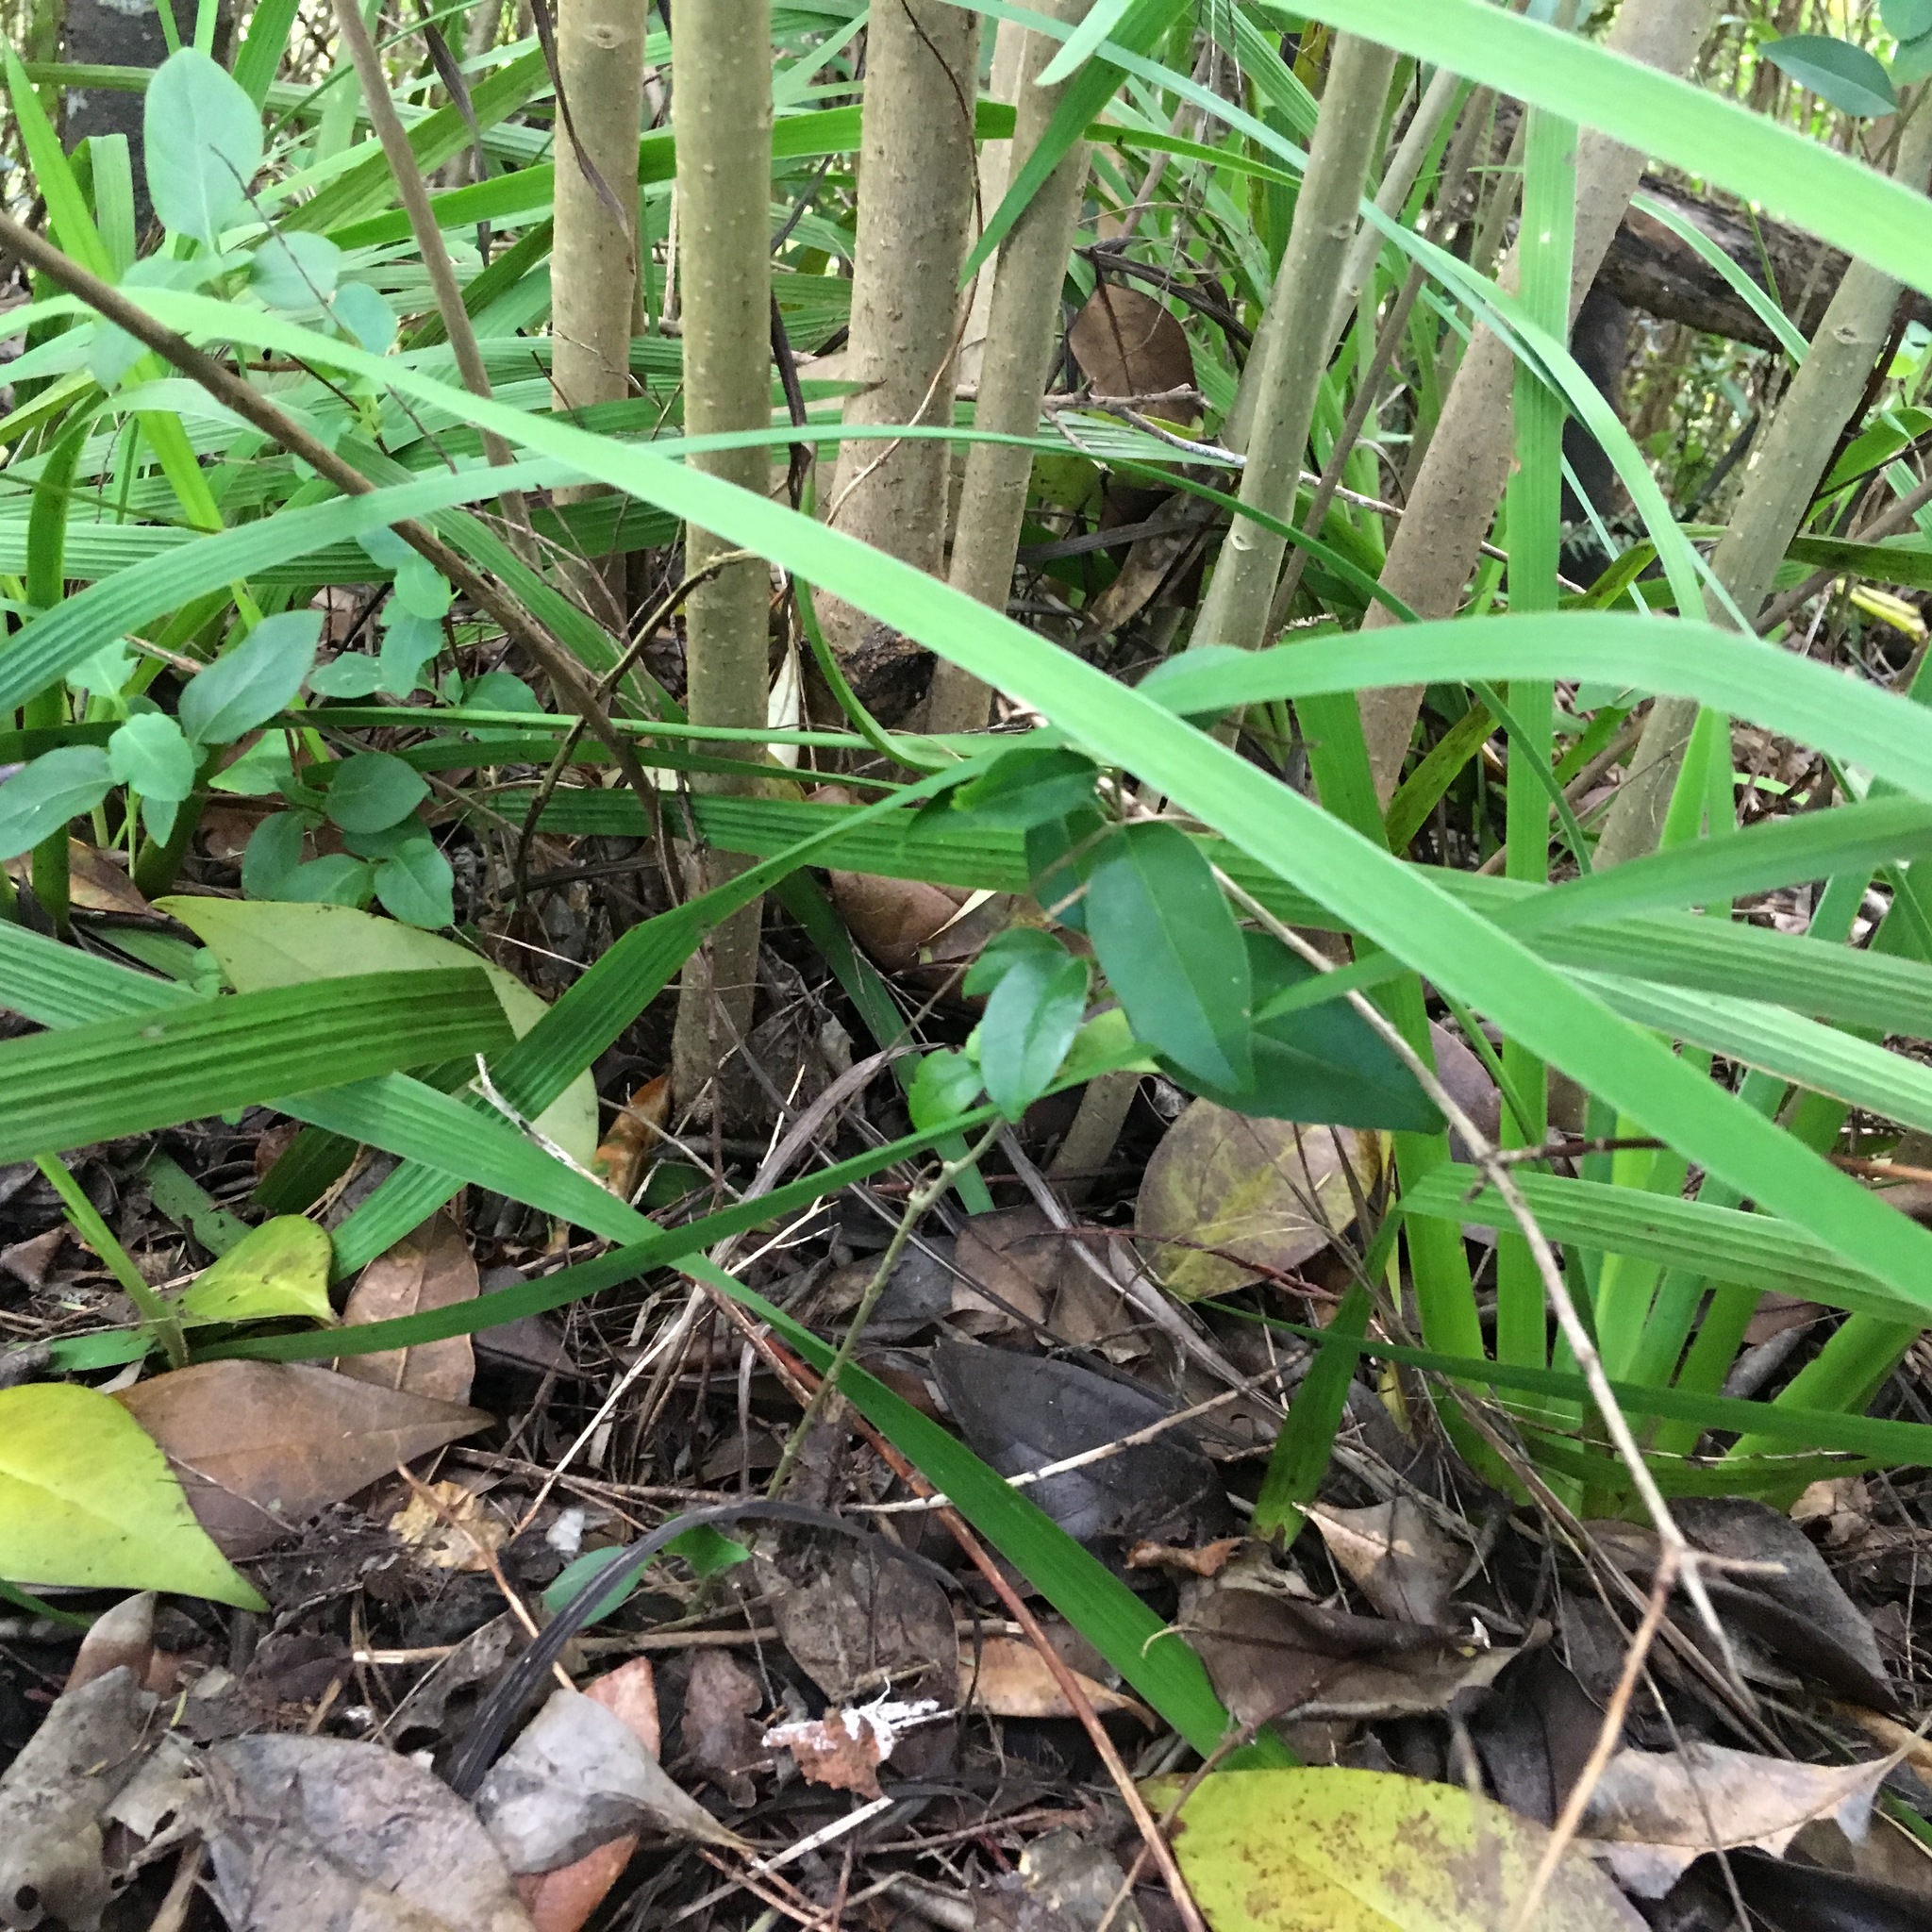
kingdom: Plantae
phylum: Tracheophyta
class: Liliopsida
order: Asparagales
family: Iridaceae
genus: Aristea
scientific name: Aristea ecklonii
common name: Blue corn-lily
